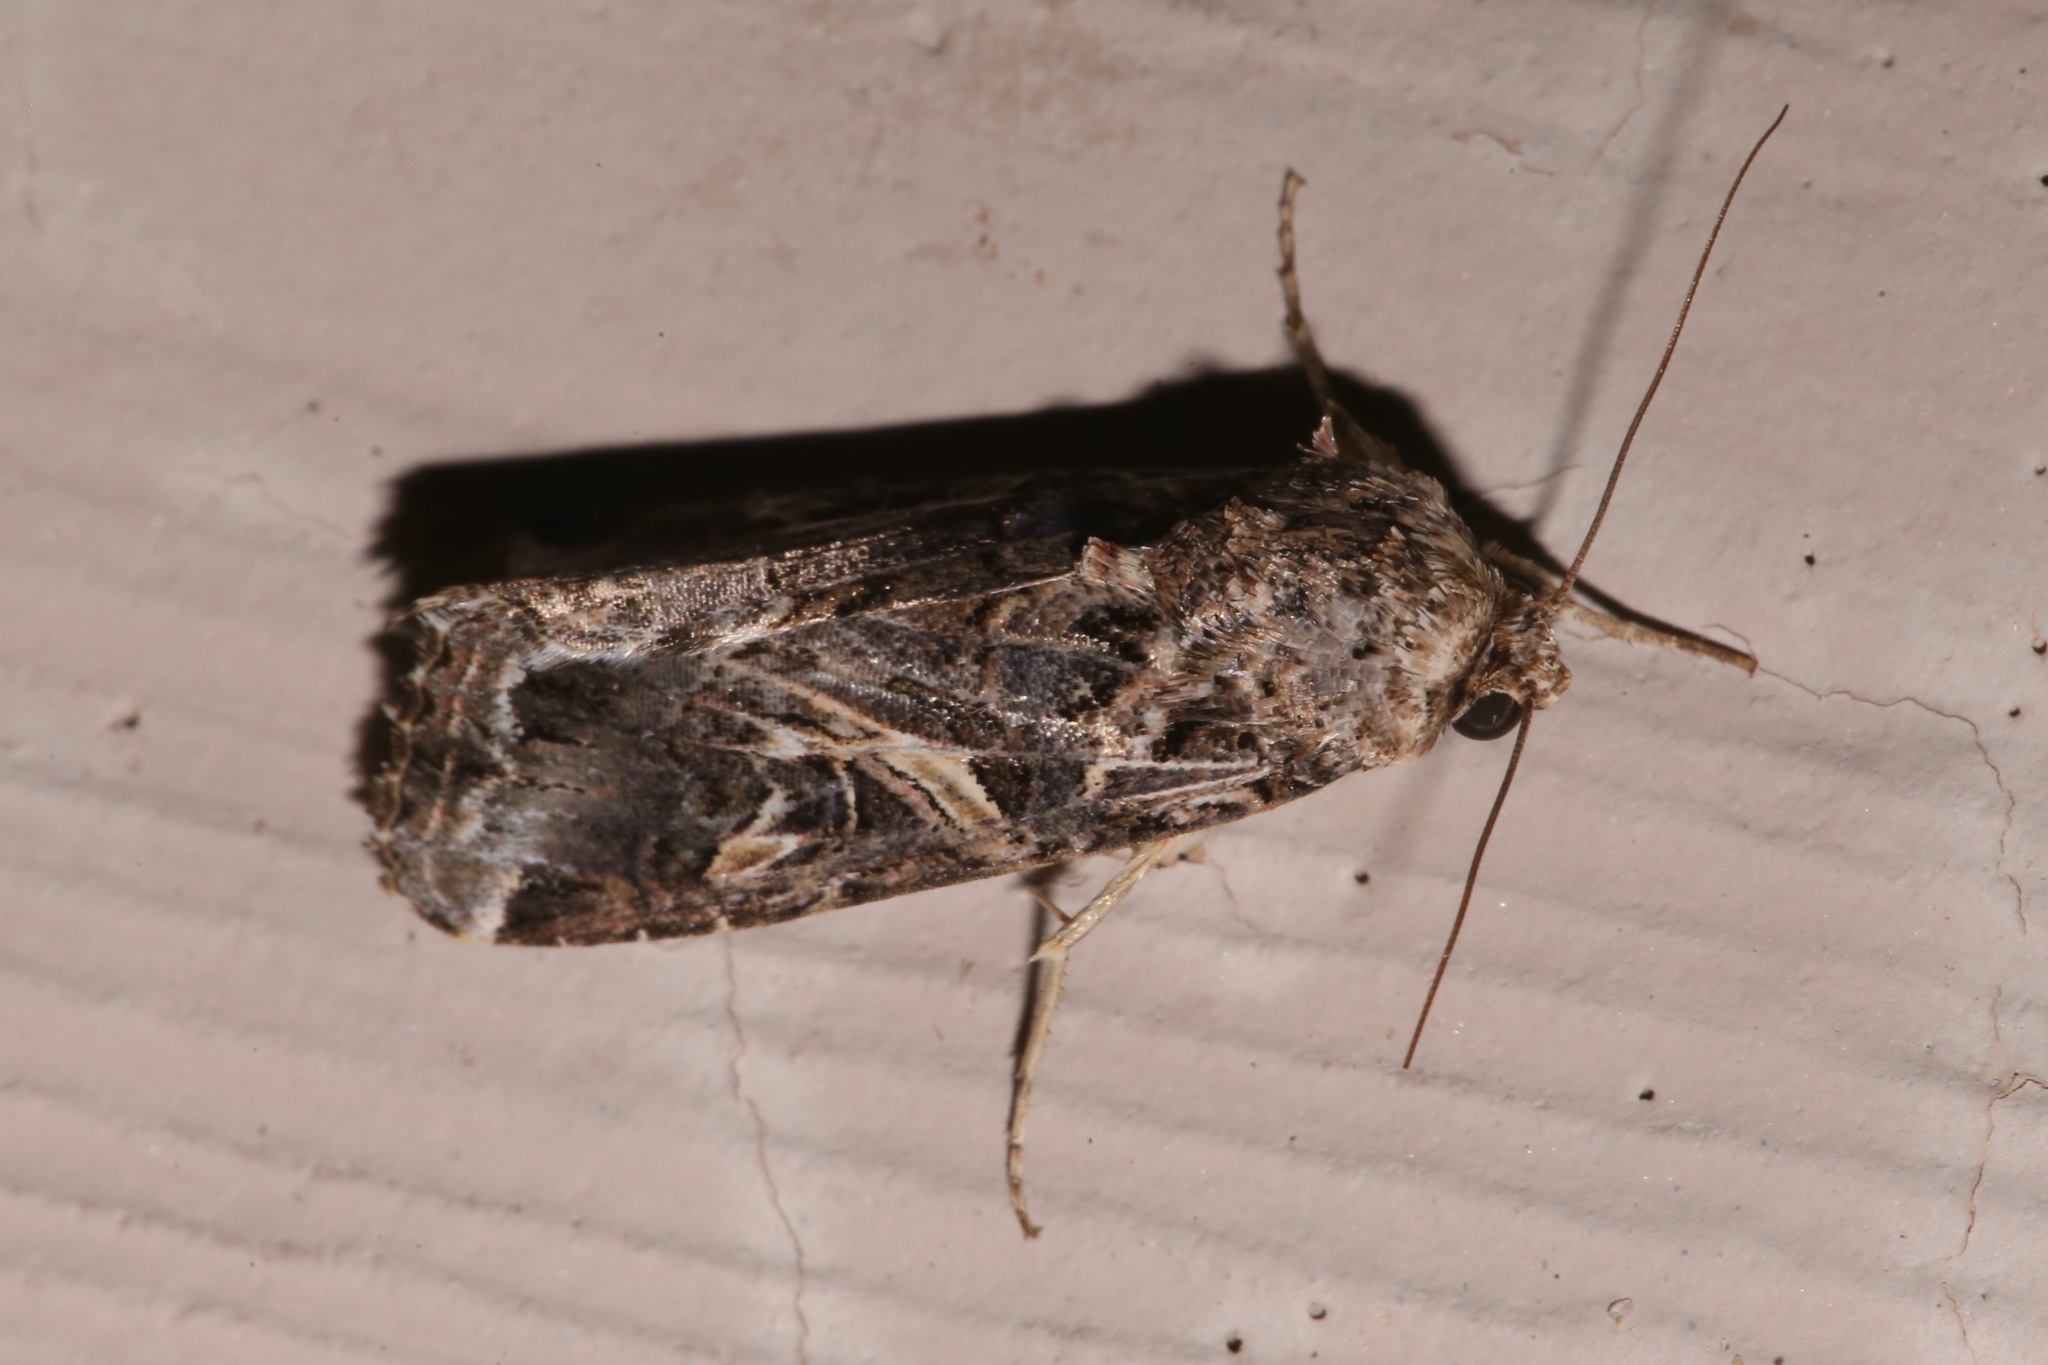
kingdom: Animalia
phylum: Arthropoda
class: Insecta
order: Lepidoptera
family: Noctuidae
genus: Spodoptera
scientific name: Spodoptera ornithogalli
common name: Yellow-striped armyworm
